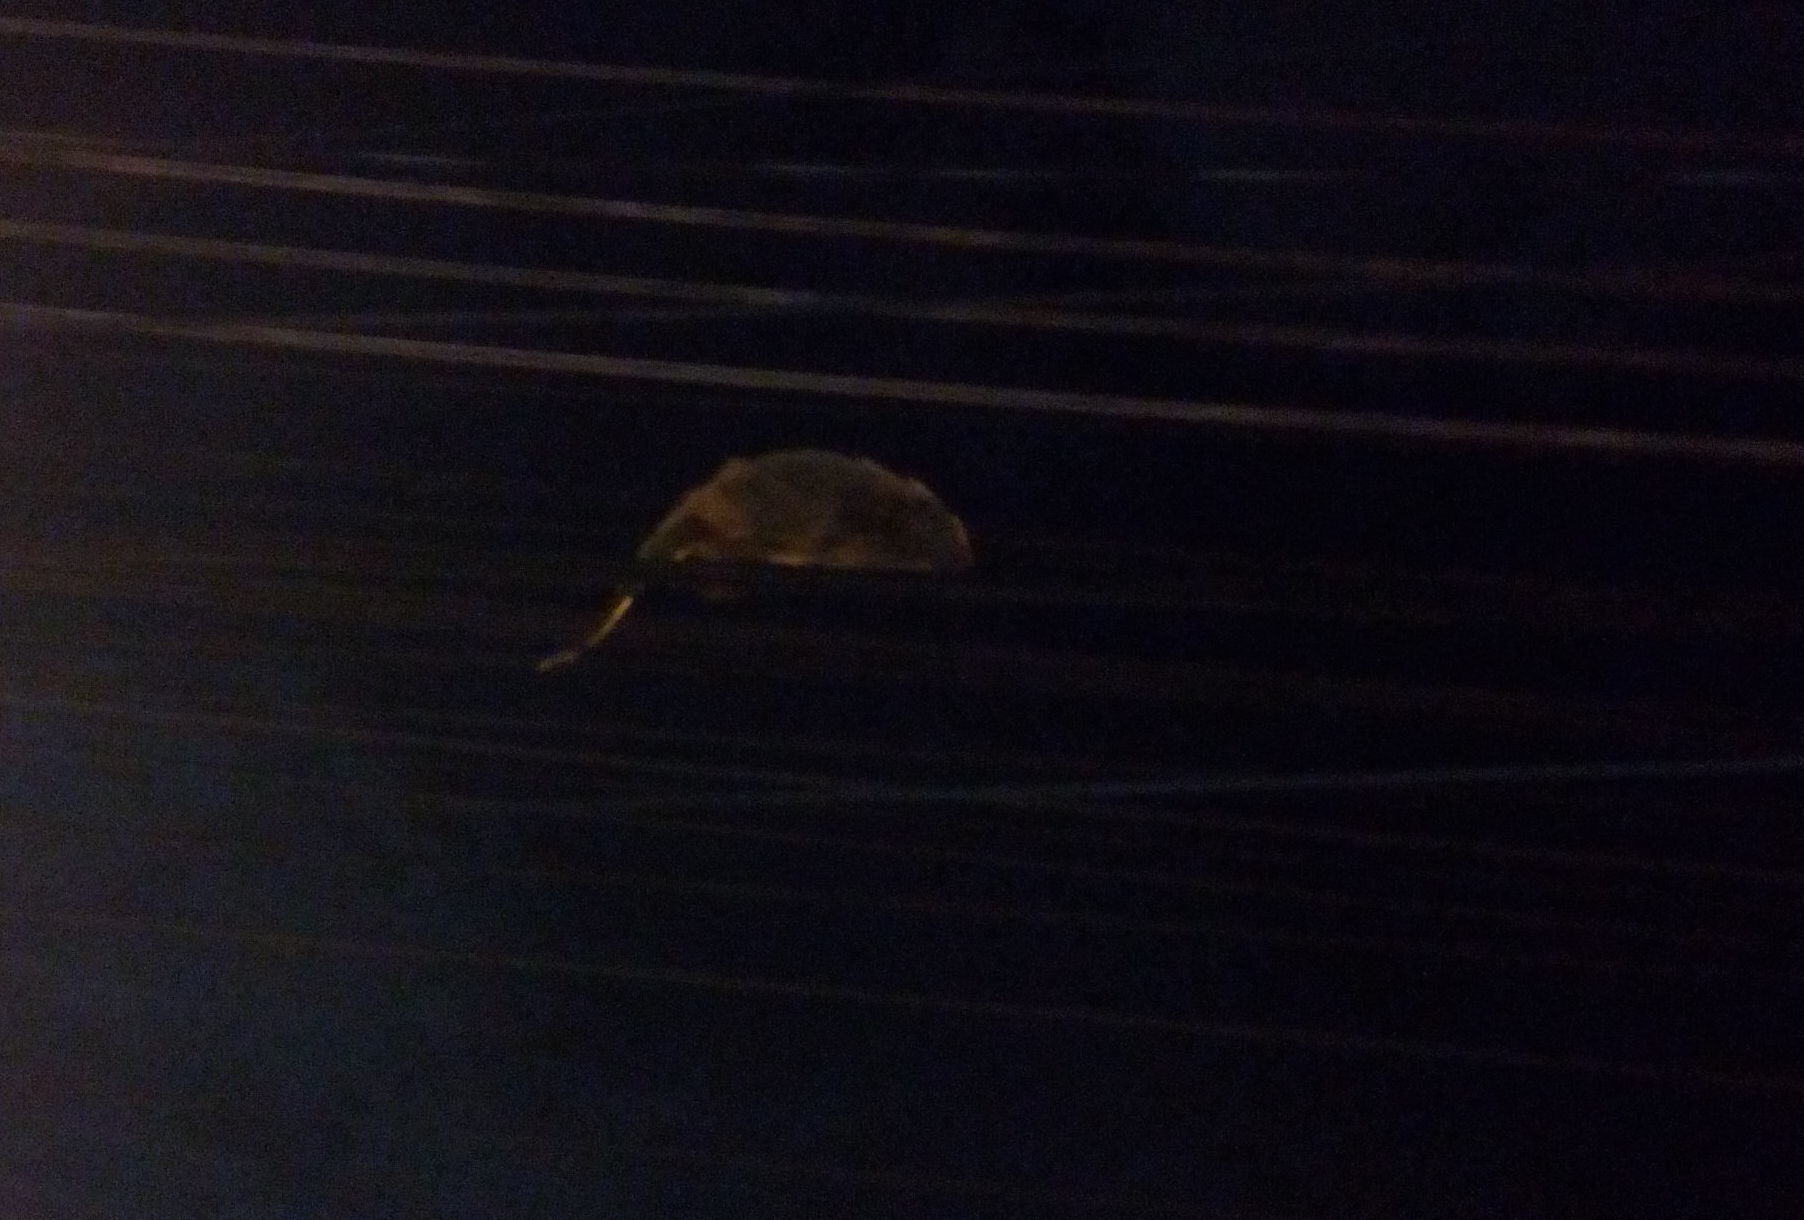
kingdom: Animalia
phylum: Chordata
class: Mammalia
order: Rodentia
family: Erethizontidae
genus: Sphiggurus
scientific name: Sphiggurus spinosus
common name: Paraguaian hairy dwarf porcupine
